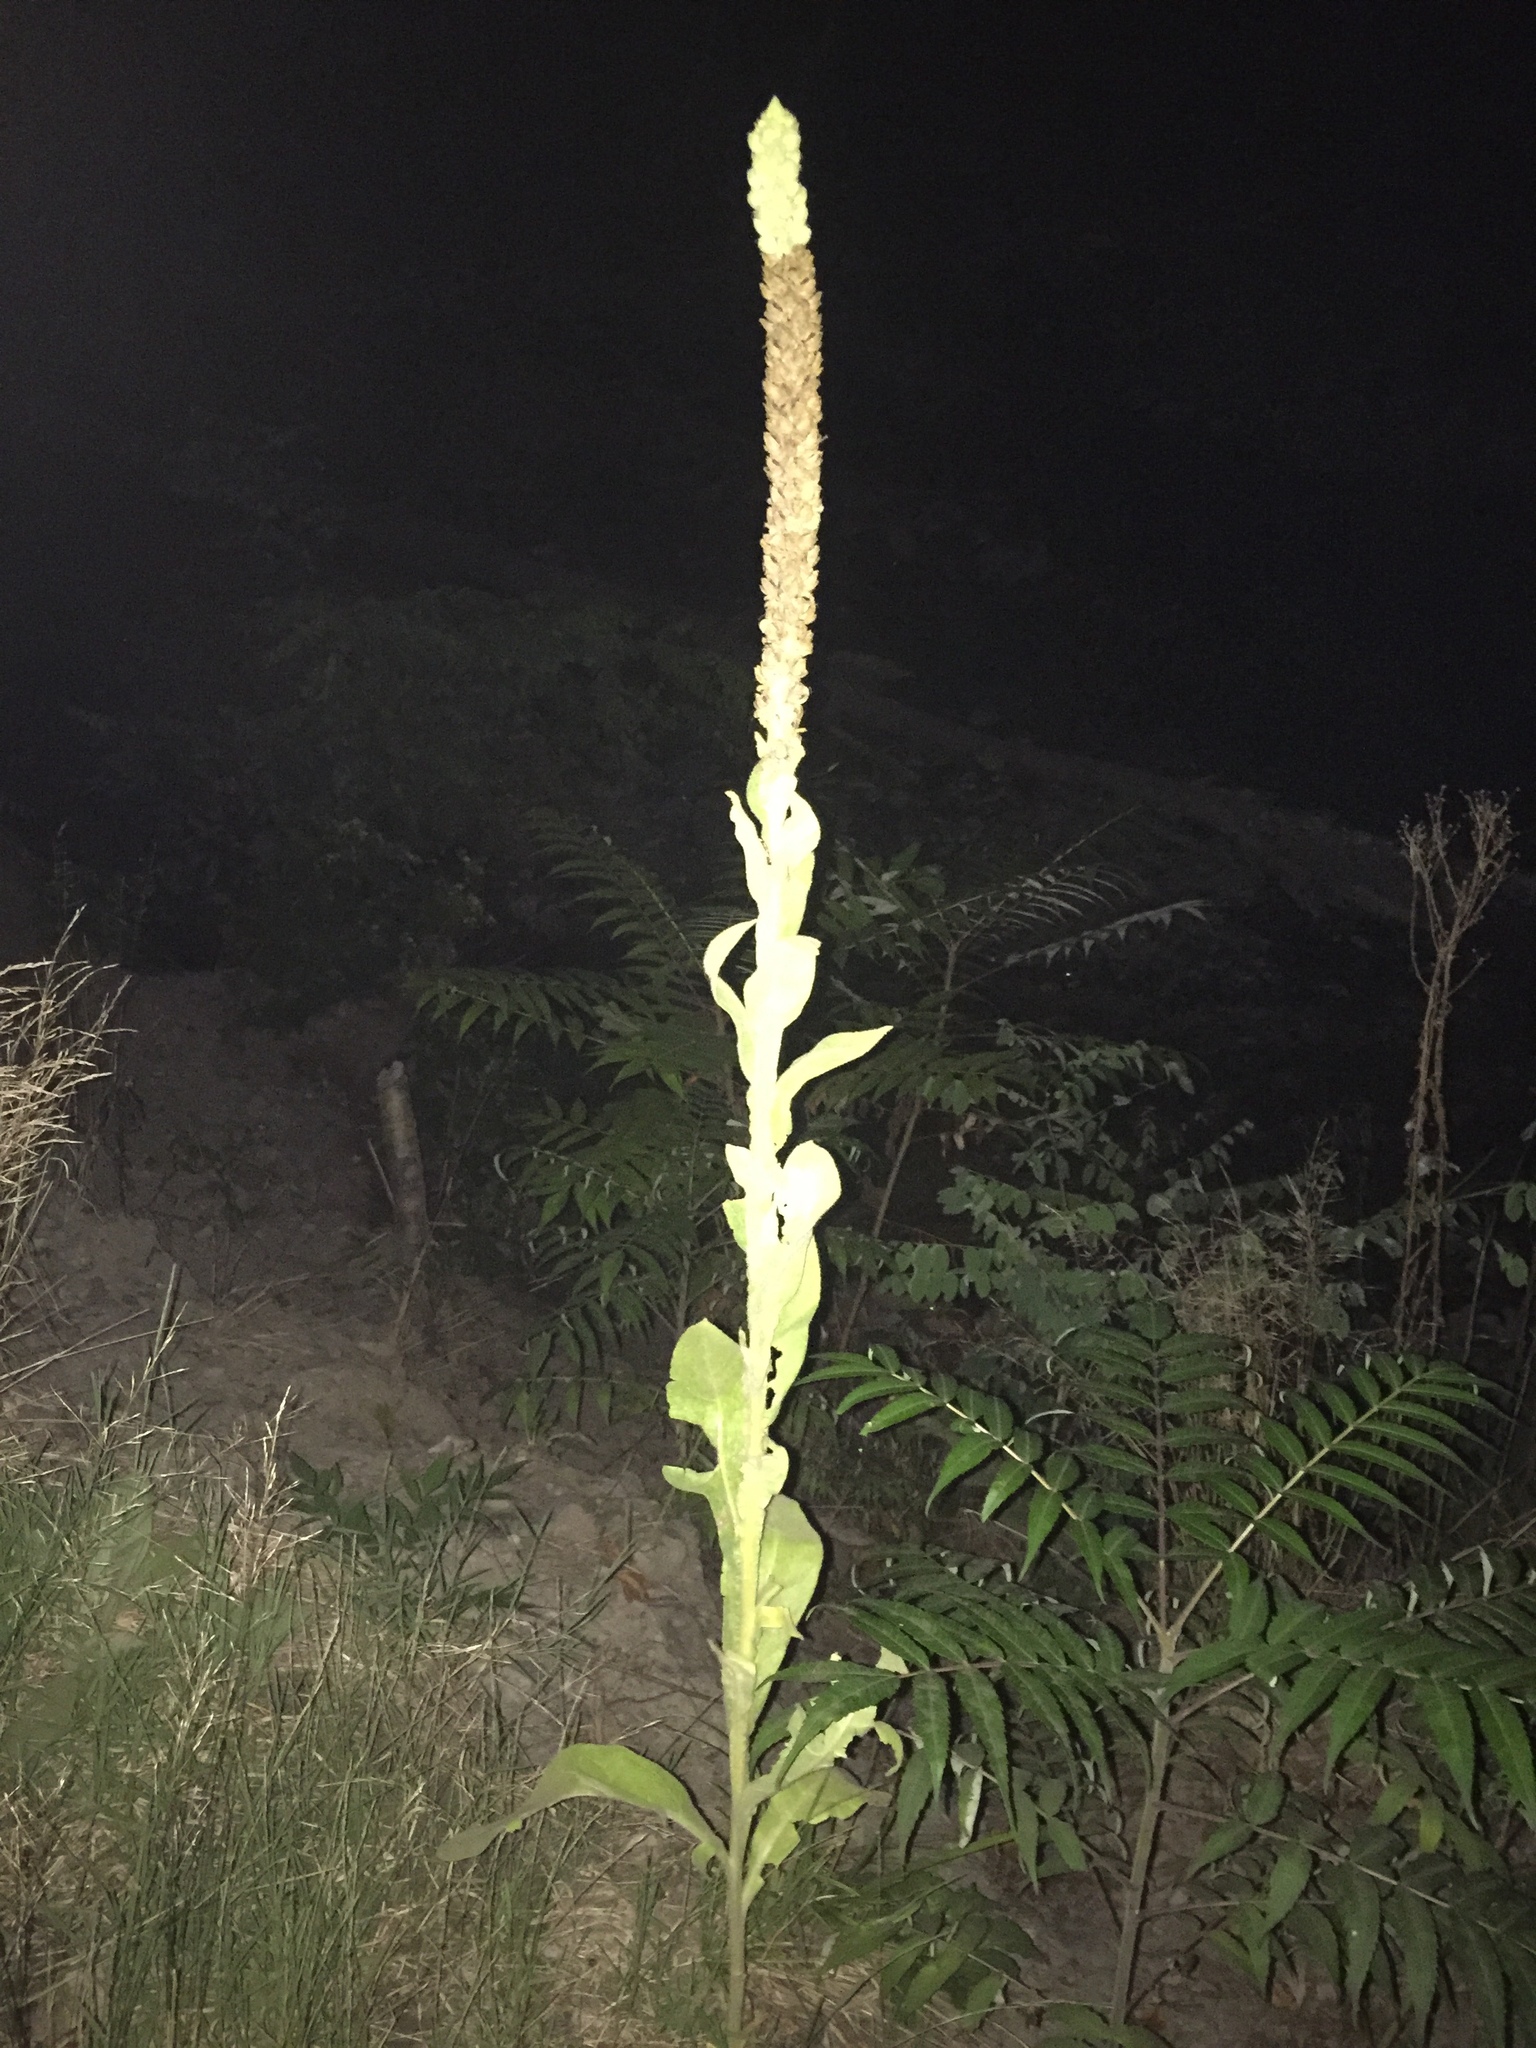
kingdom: Plantae
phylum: Tracheophyta
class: Magnoliopsida
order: Lamiales
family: Scrophulariaceae
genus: Verbascum
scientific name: Verbascum thapsus
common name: Common mullein
